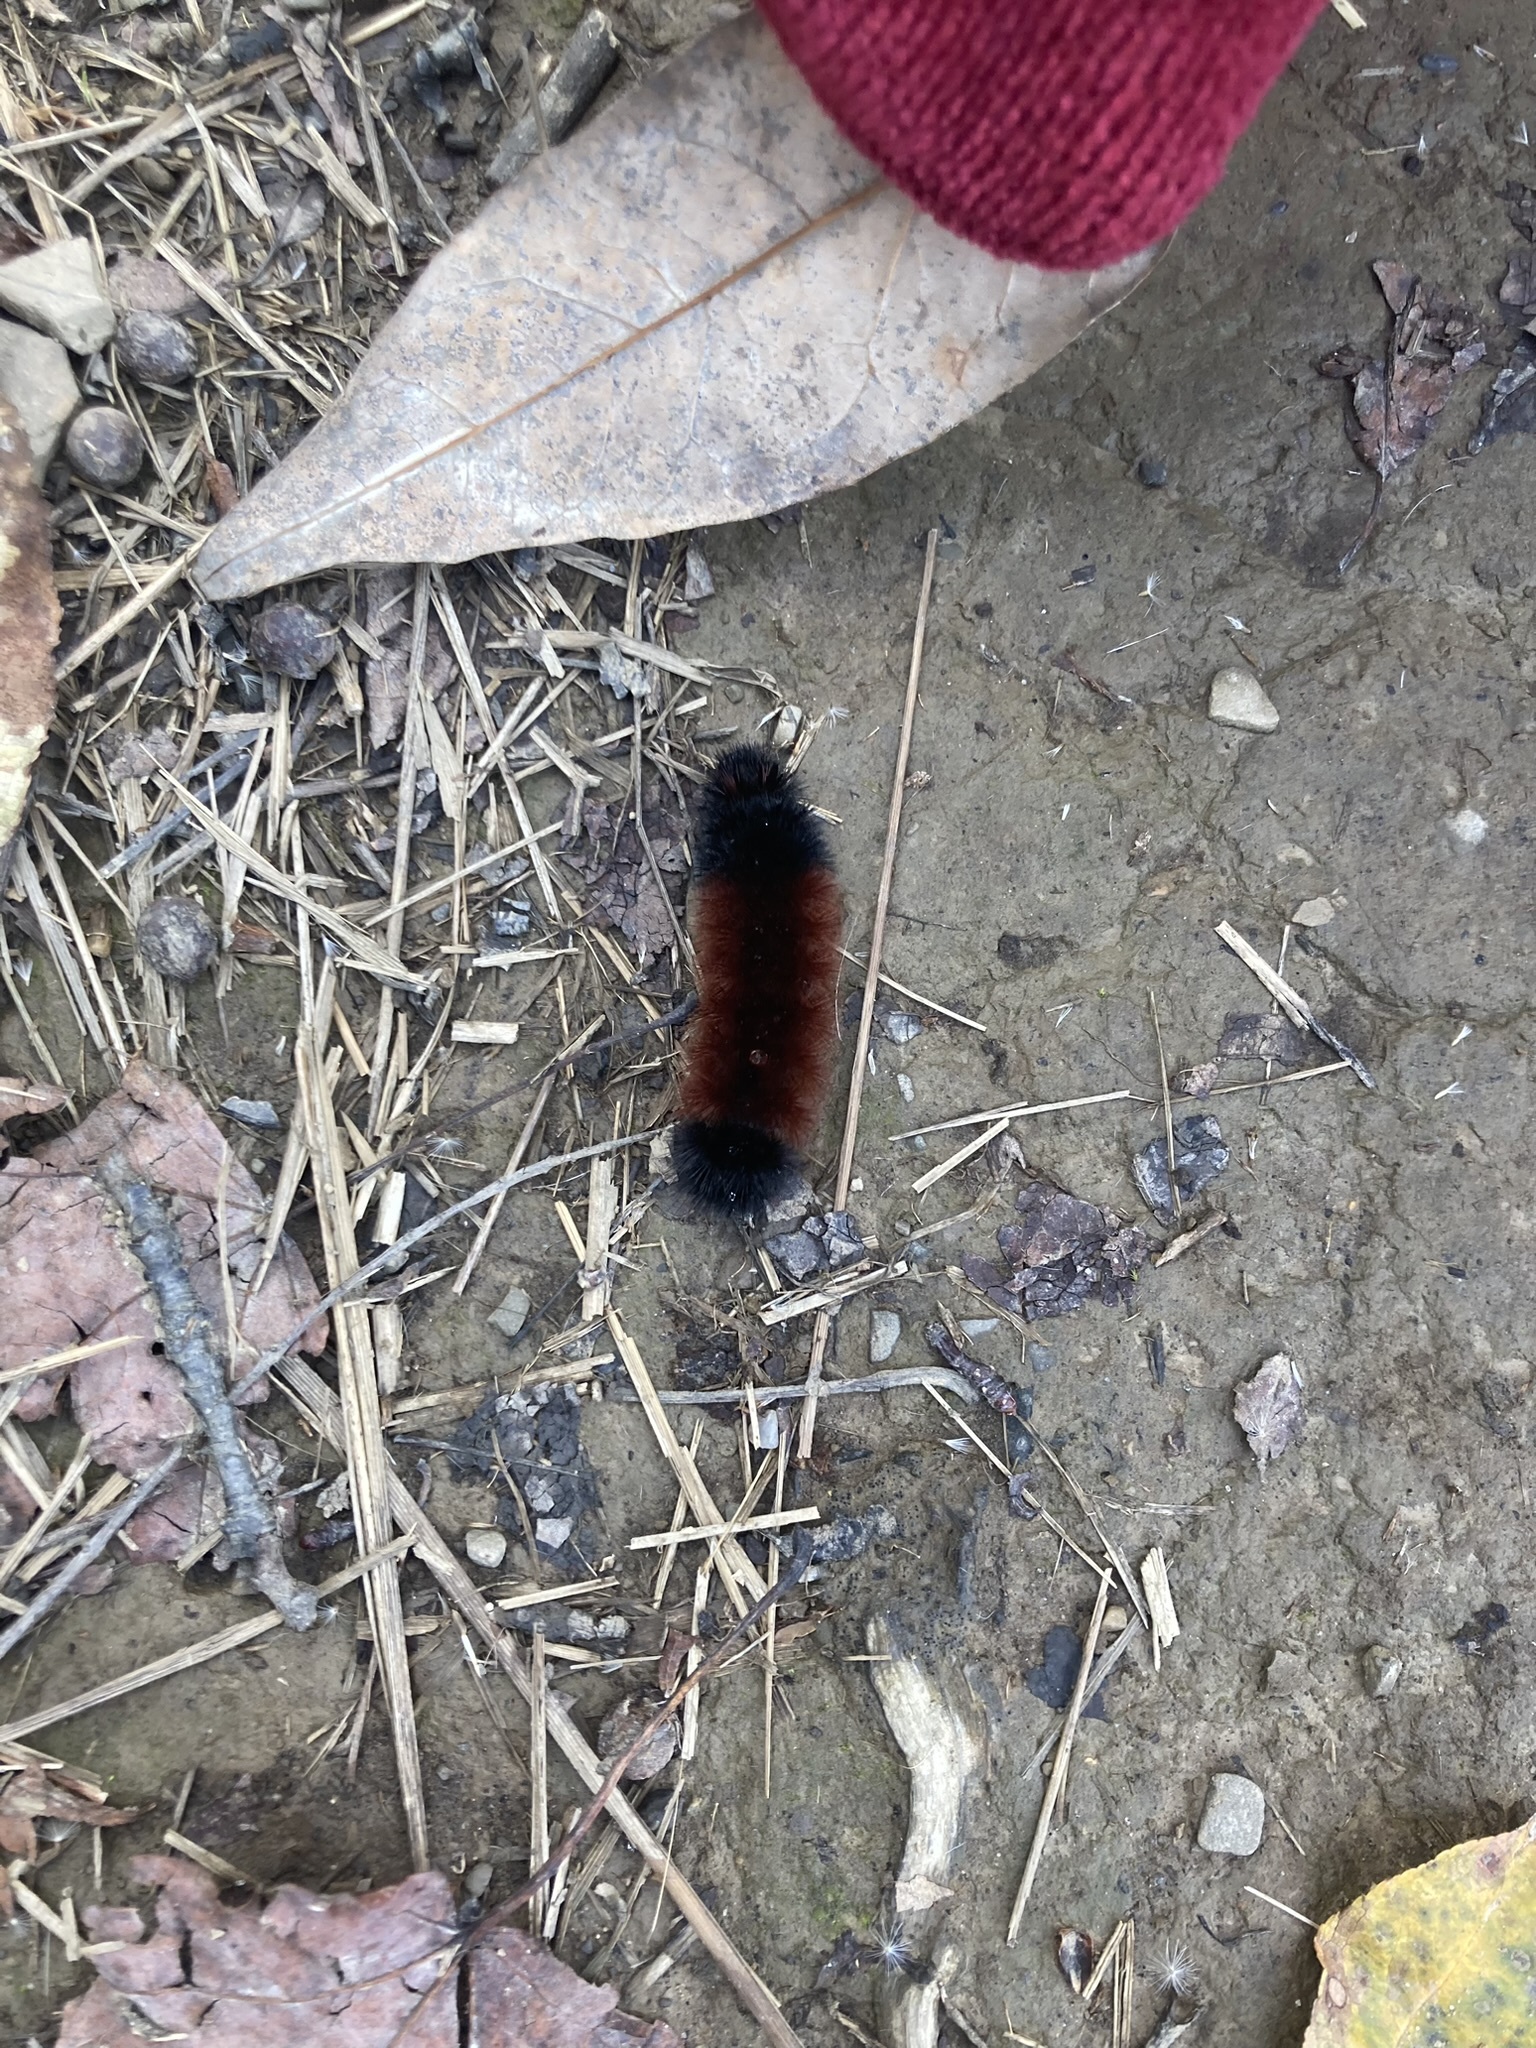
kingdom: Animalia
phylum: Arthropoda
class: Insecta
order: Lepidoptera
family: Erebidae
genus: Pyrrharctia
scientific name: Pyrrharctia isabella
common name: Isabella tiger moth
